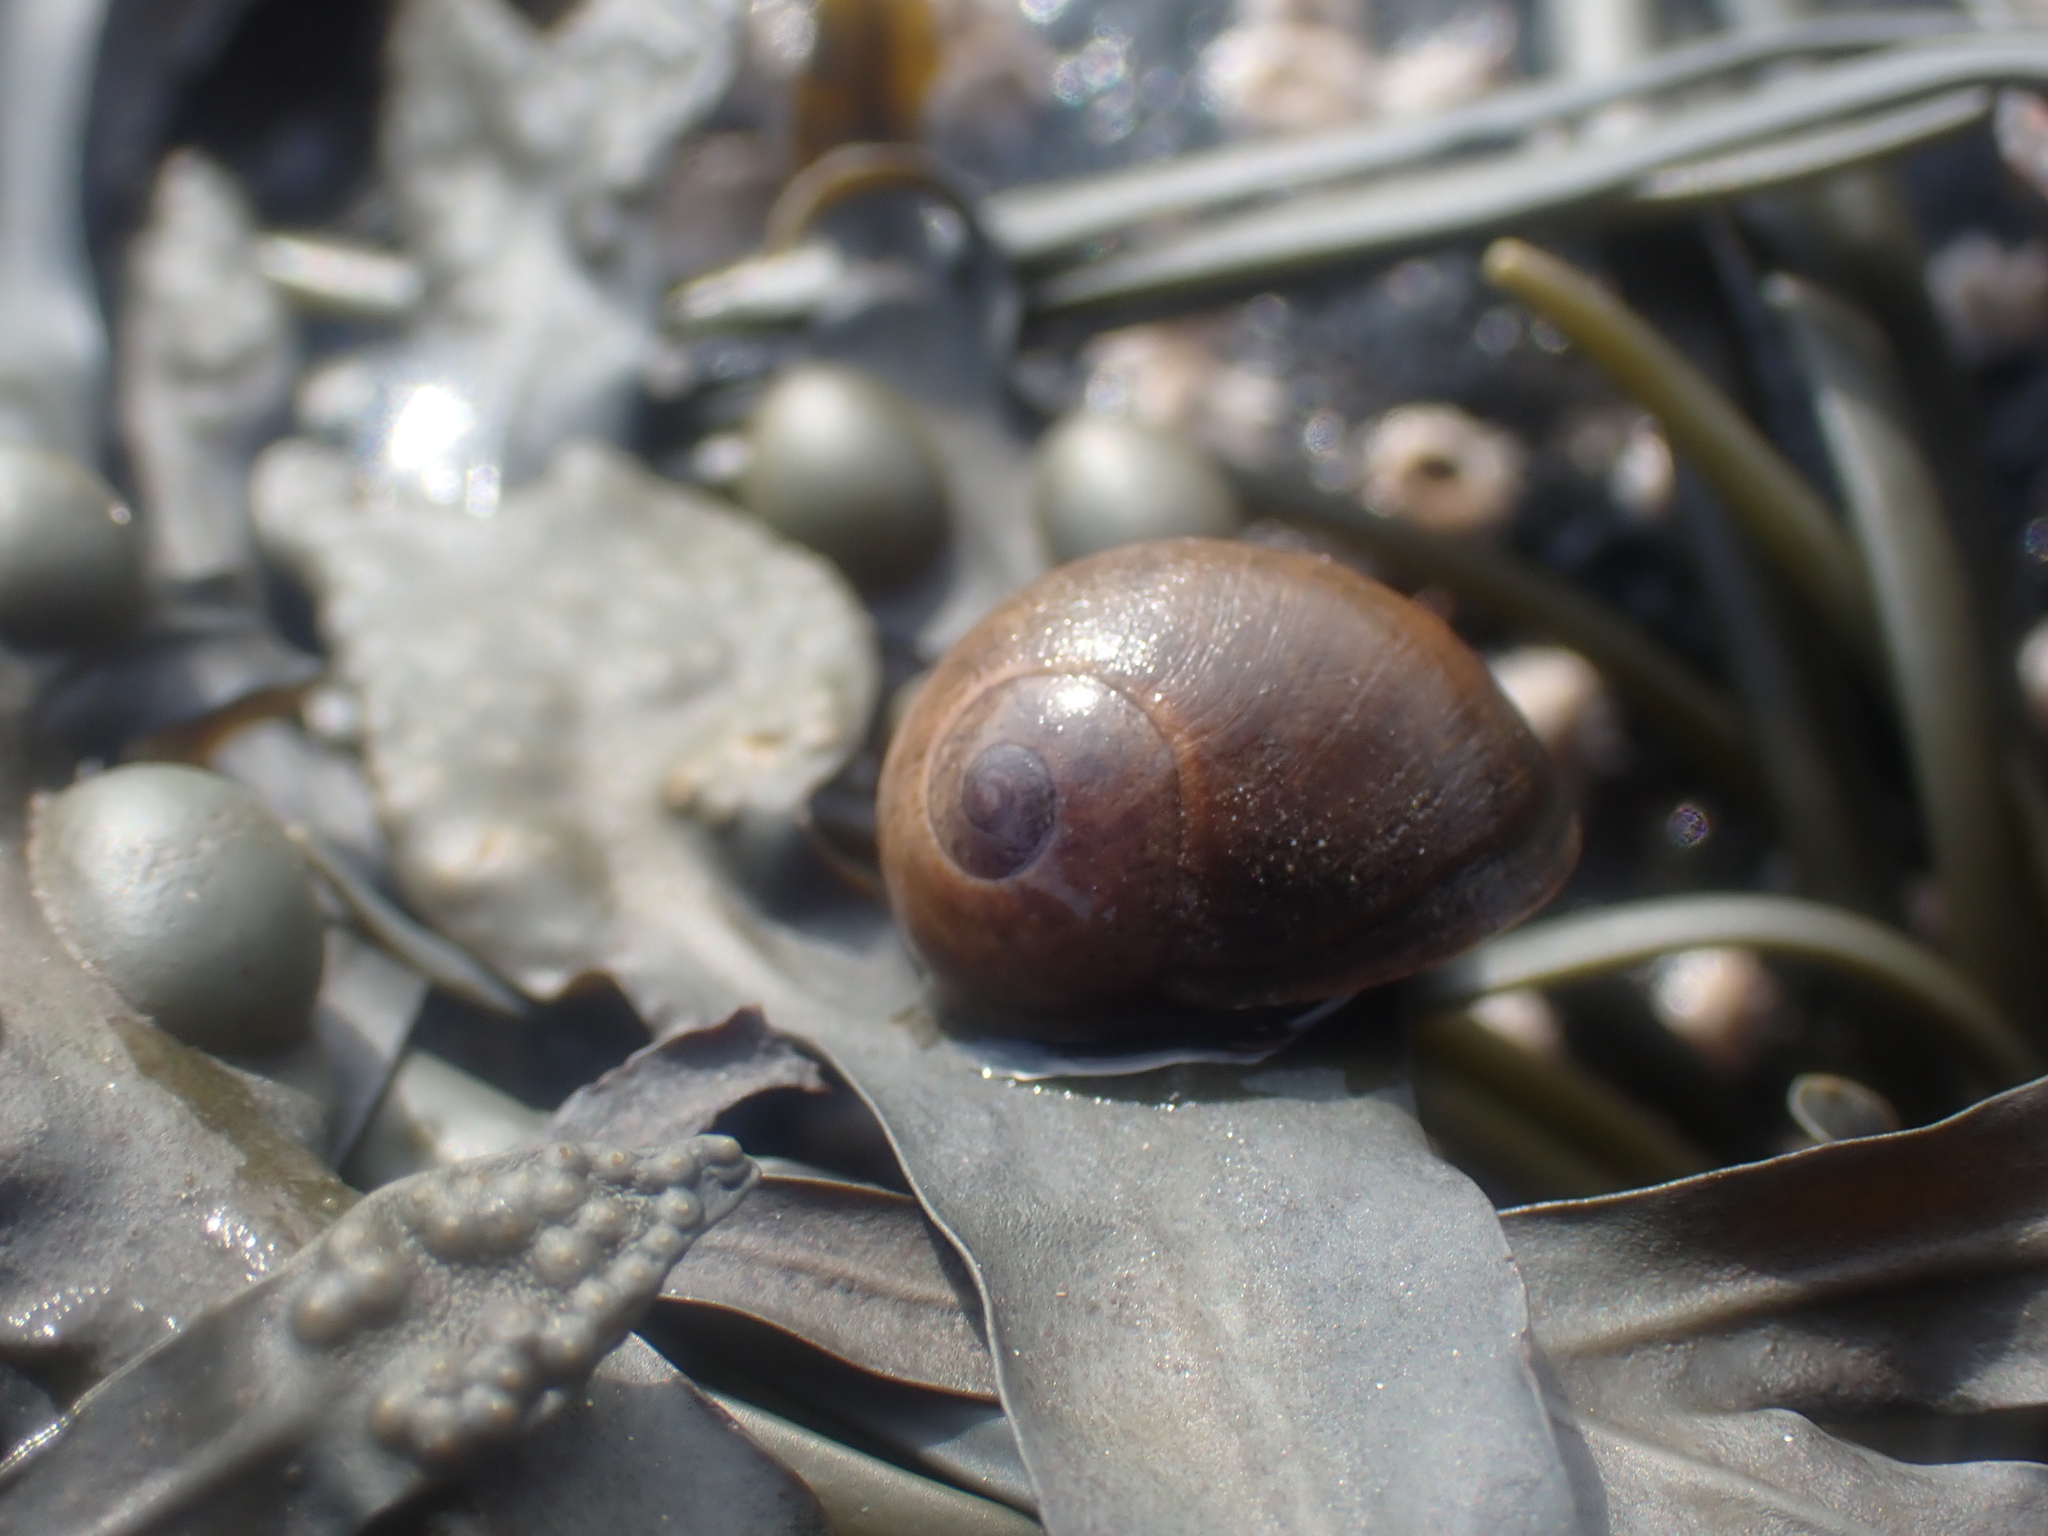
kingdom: Animalia
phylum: Mollusca
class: Gastropoda
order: Littorinimorpha
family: Littorinidae
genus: Littorina
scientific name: Littorina obtusata
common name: Flat periwinkle
